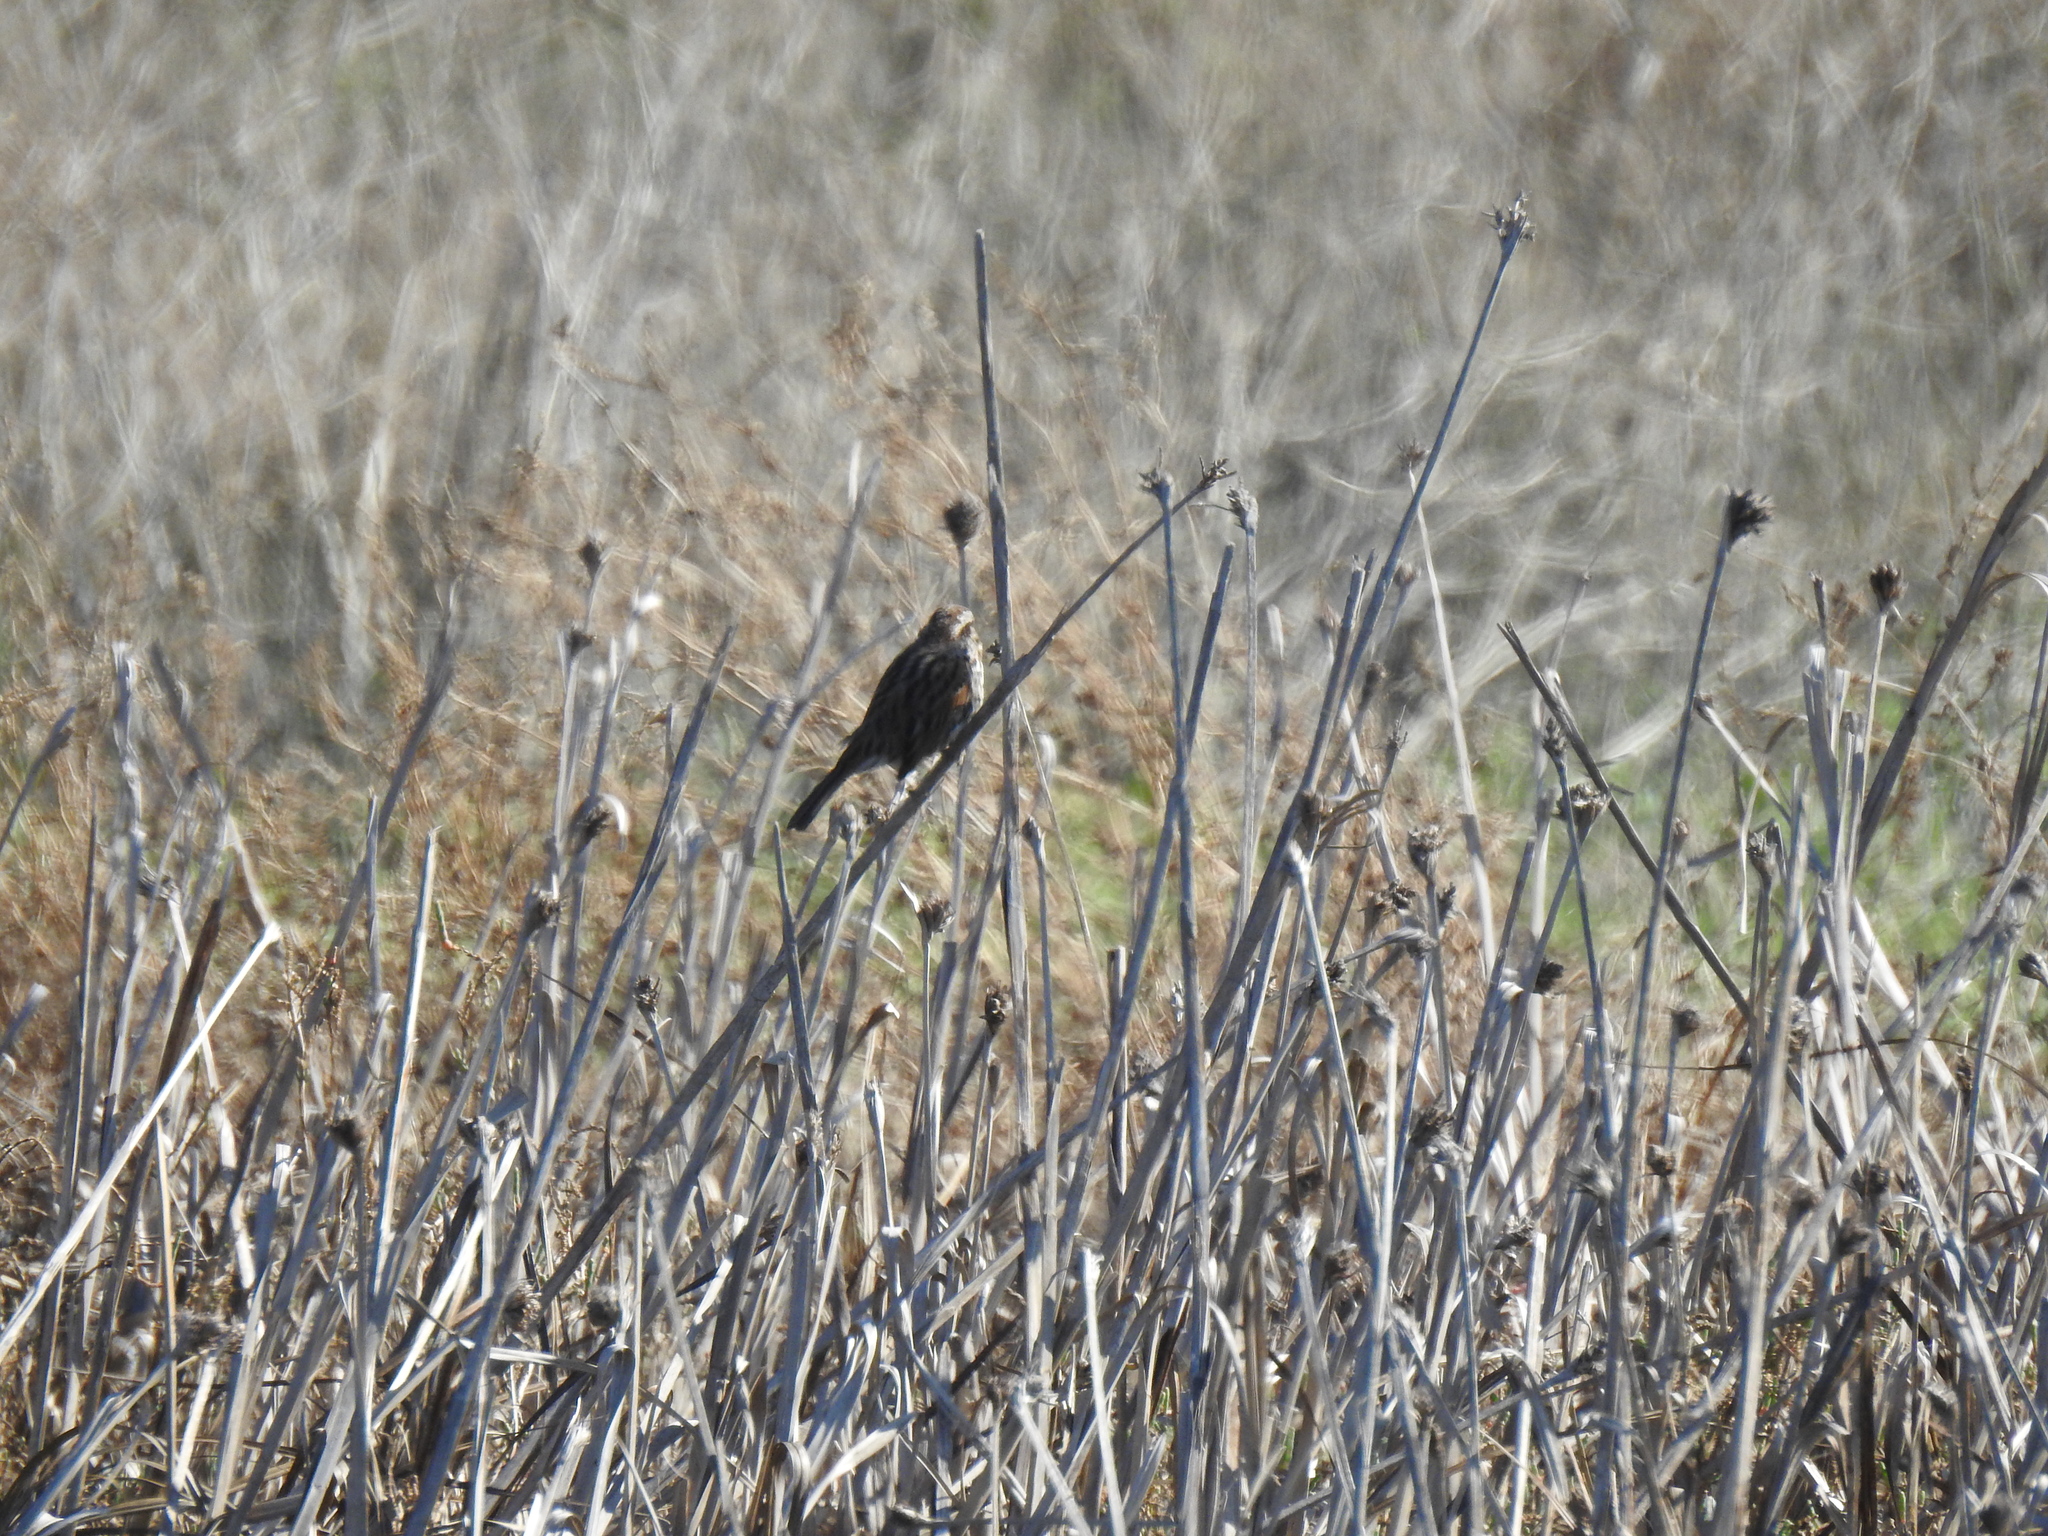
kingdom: Animalia
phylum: Chordata
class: Aves
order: Passeriformes
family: Passerellidae
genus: Melospiza
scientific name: Melospiza melodia
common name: Song sparrow
